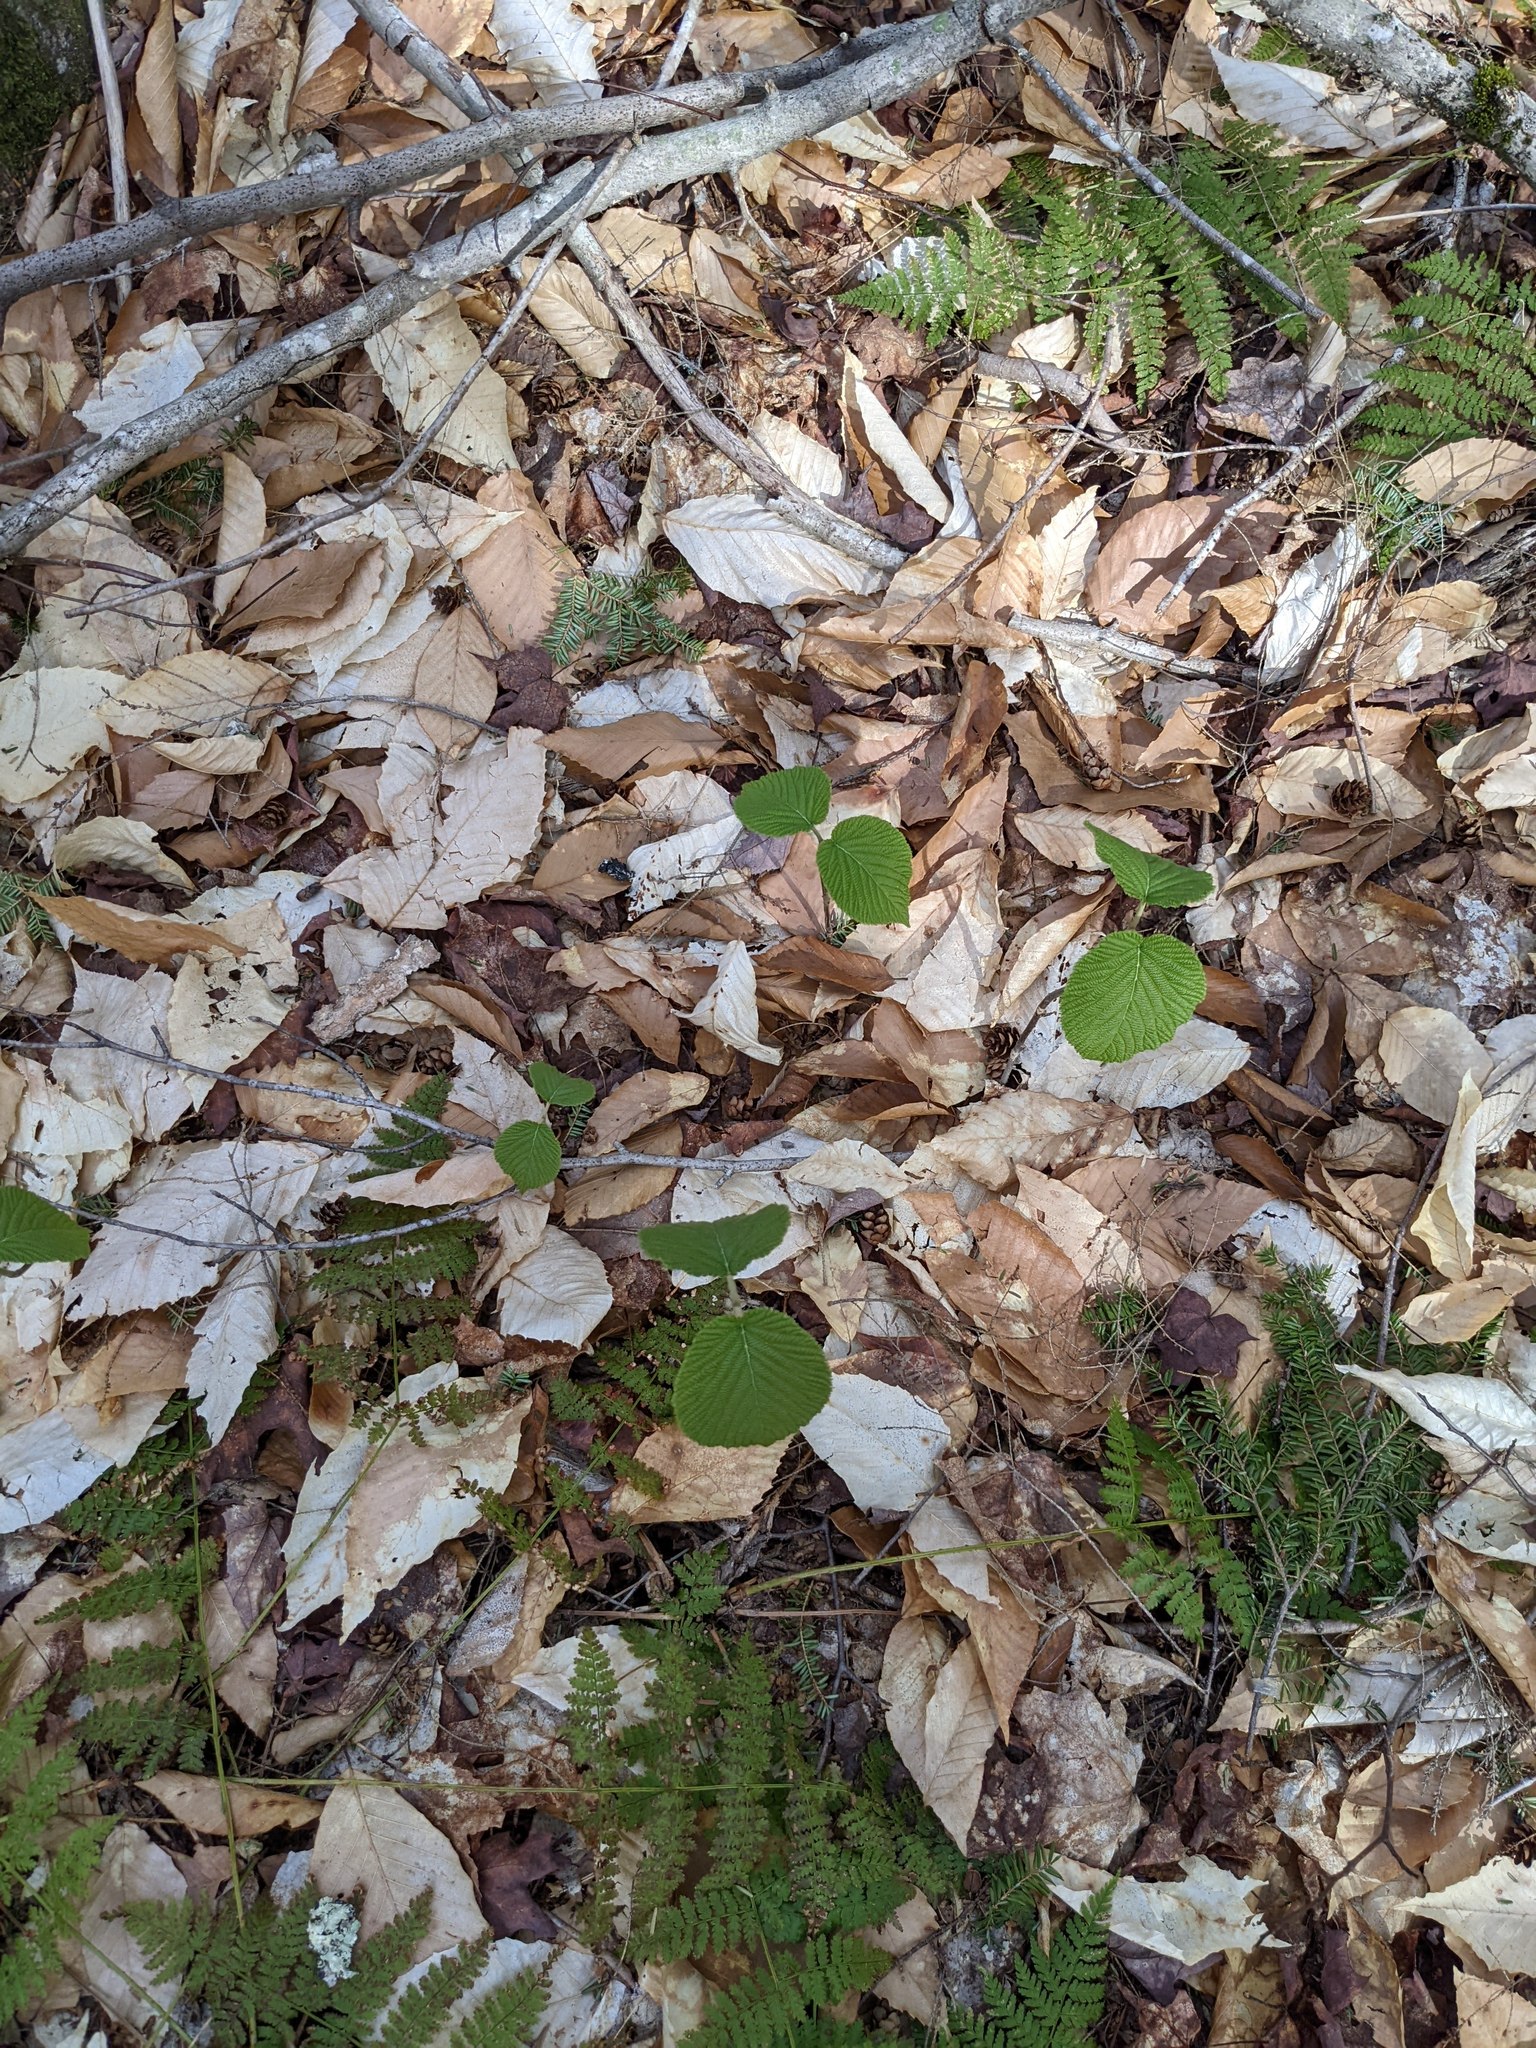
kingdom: Plantae
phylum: Tracheophyta
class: Magnoliopsida
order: Dipsacales
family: Viburnaceae
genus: Viburnum
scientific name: Viburnum lantanoides
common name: Hobblebush
